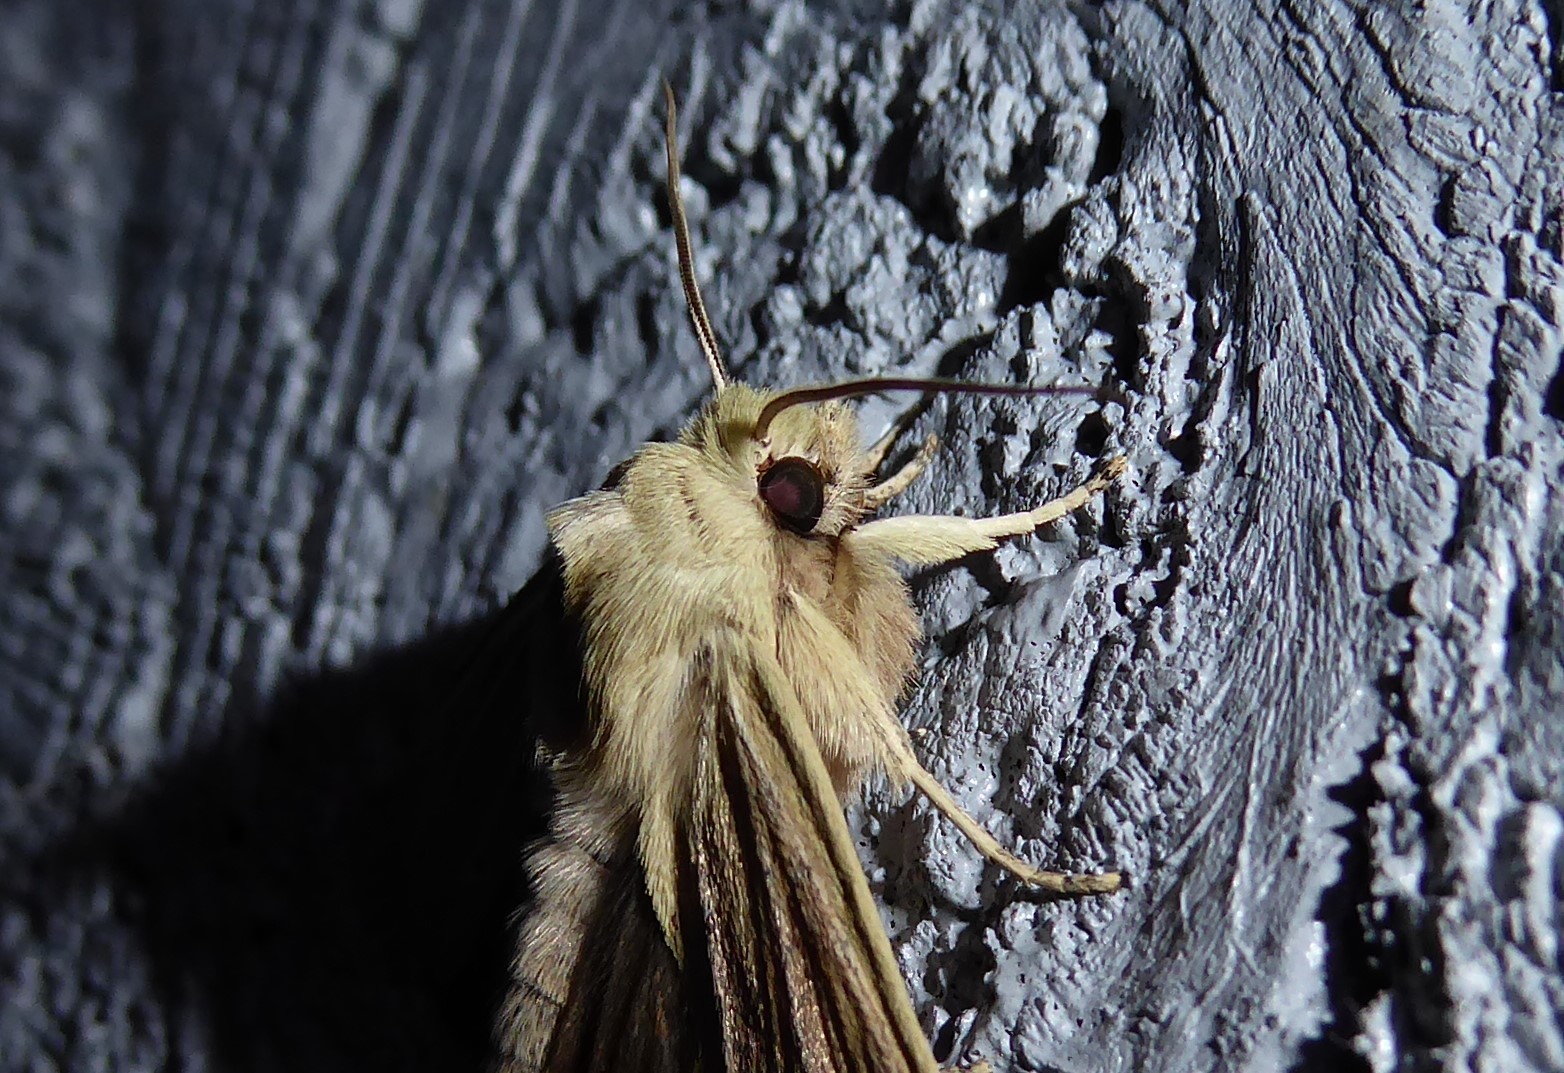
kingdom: Animalia
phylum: Arthropoda
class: Insecta
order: Lepidoptera
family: Noctuidae
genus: Ichneutica
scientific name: Ichneutica arotis
